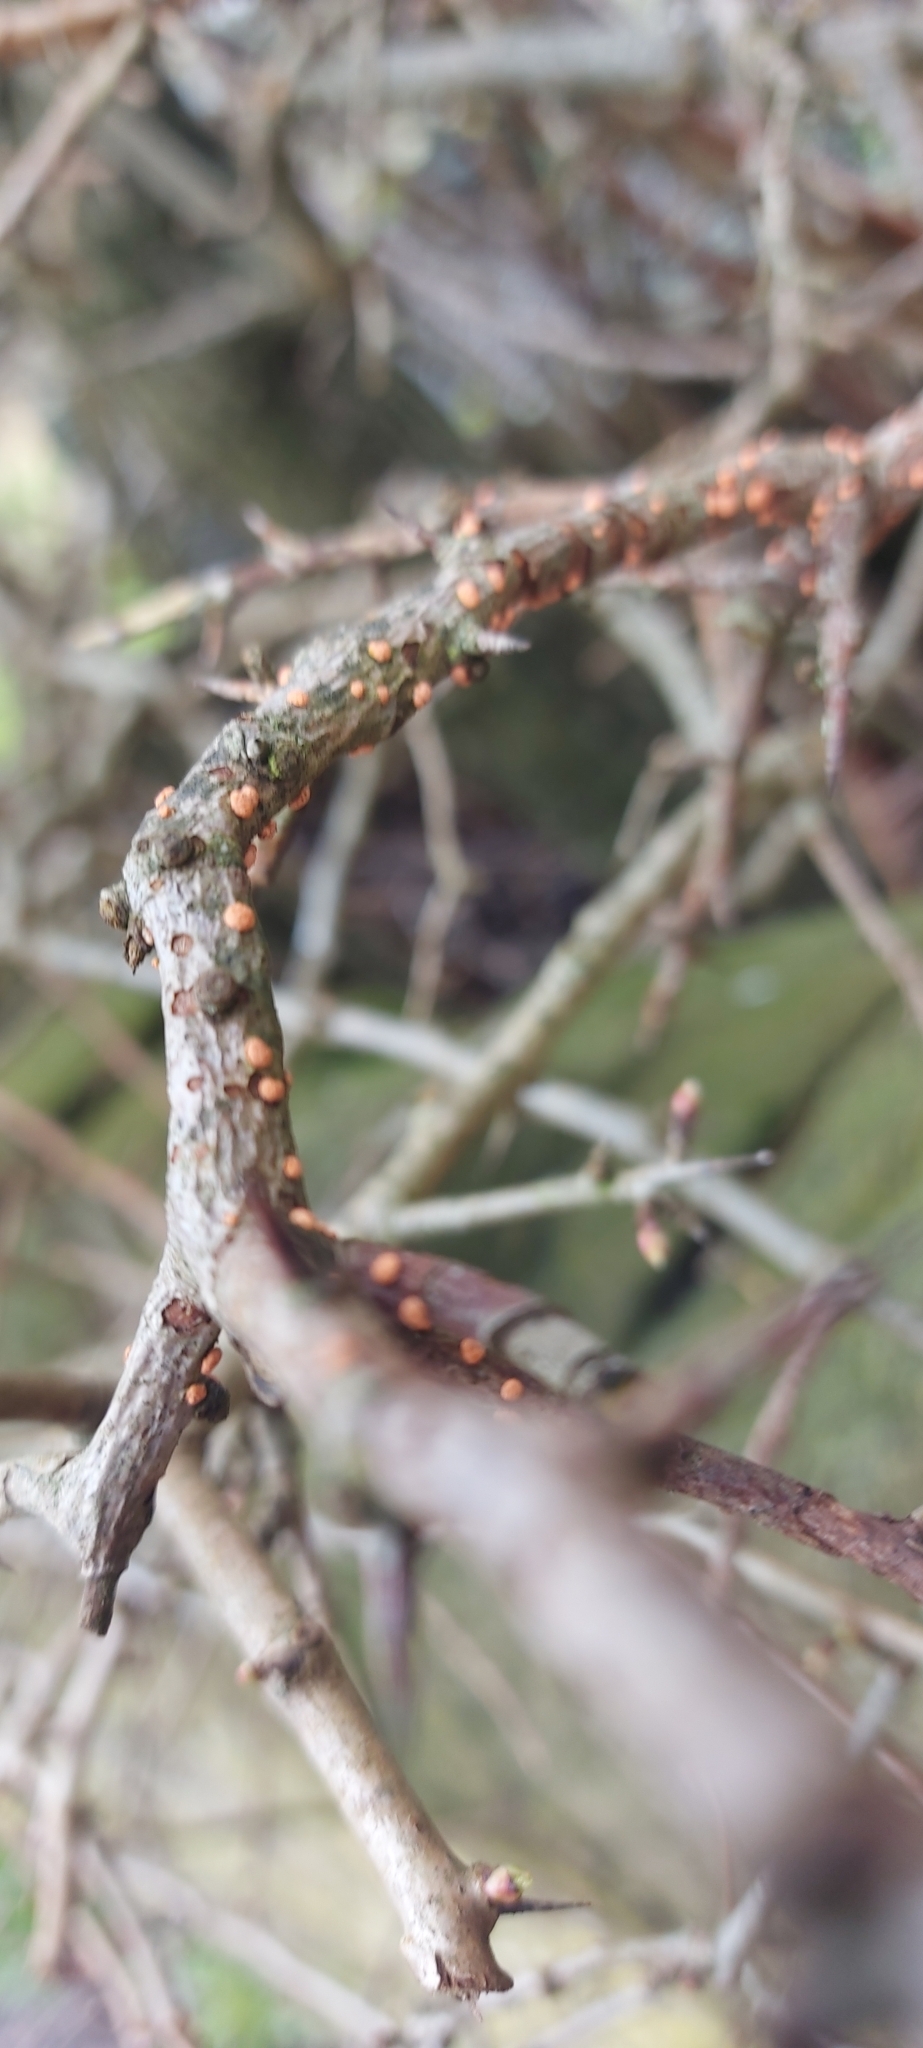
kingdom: Fungi
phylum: Ascomycota
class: Sordariomycetes
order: Hypocreales
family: Nectriaceae
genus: Nectria
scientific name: Nectria cinnabarina
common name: Coral spot
